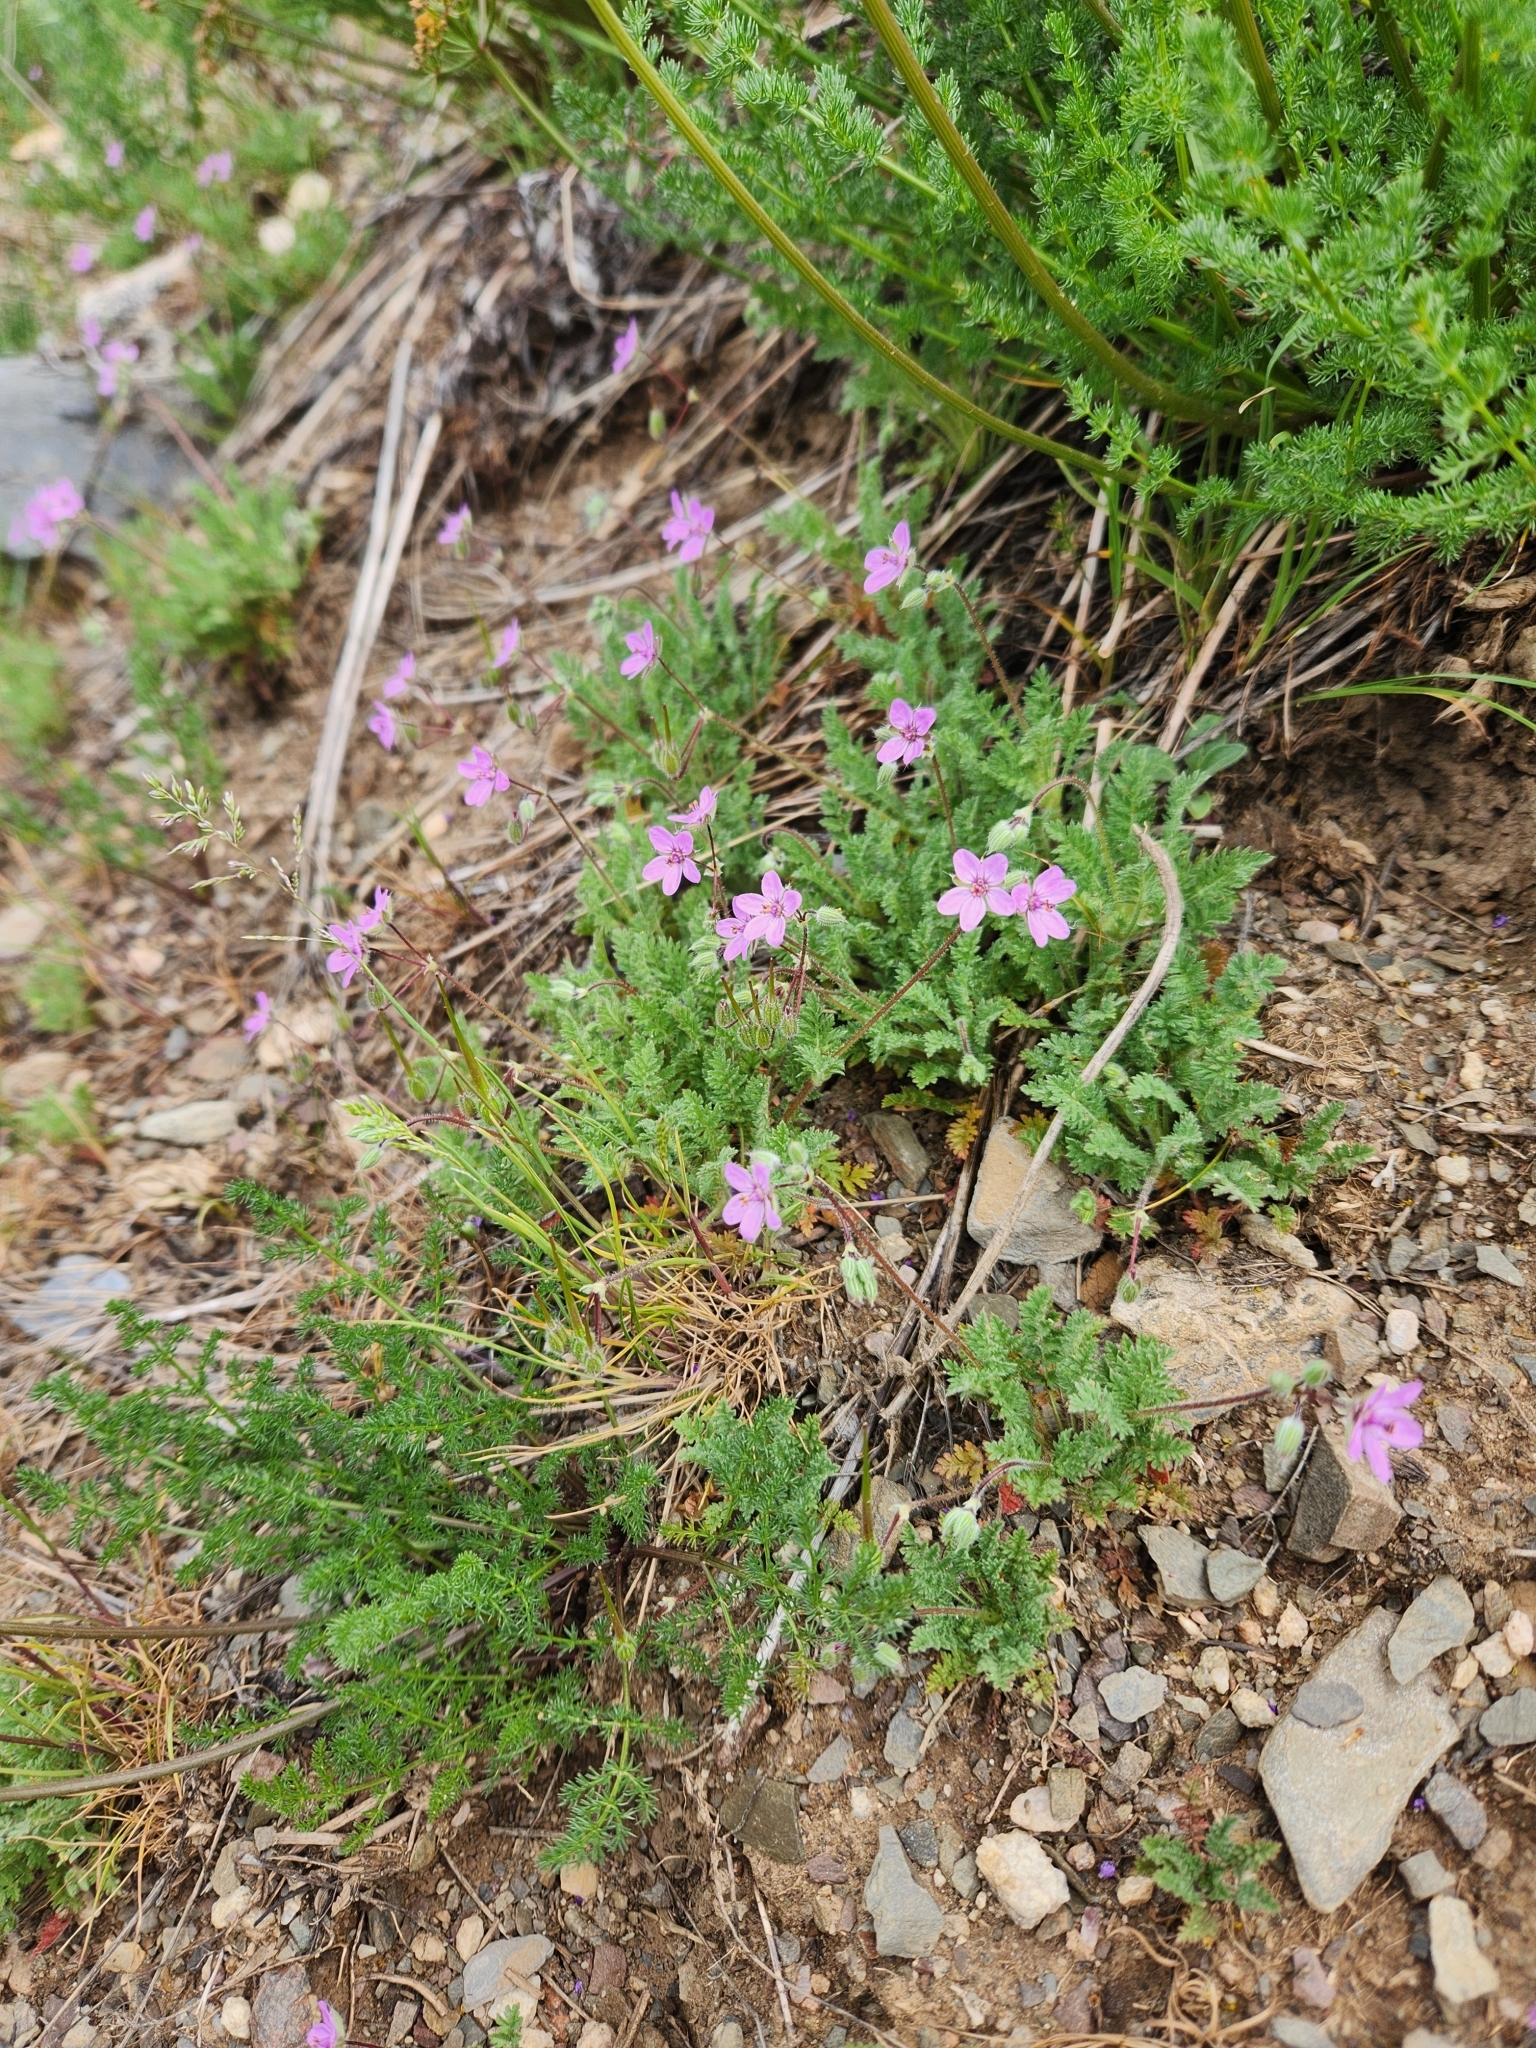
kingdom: Plantae
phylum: Tracheophyta
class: Magnoliopsida
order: Geraniales
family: Geraniaceae
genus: Erodium
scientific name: Erodium cicutarium
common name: Common stork's-bill
